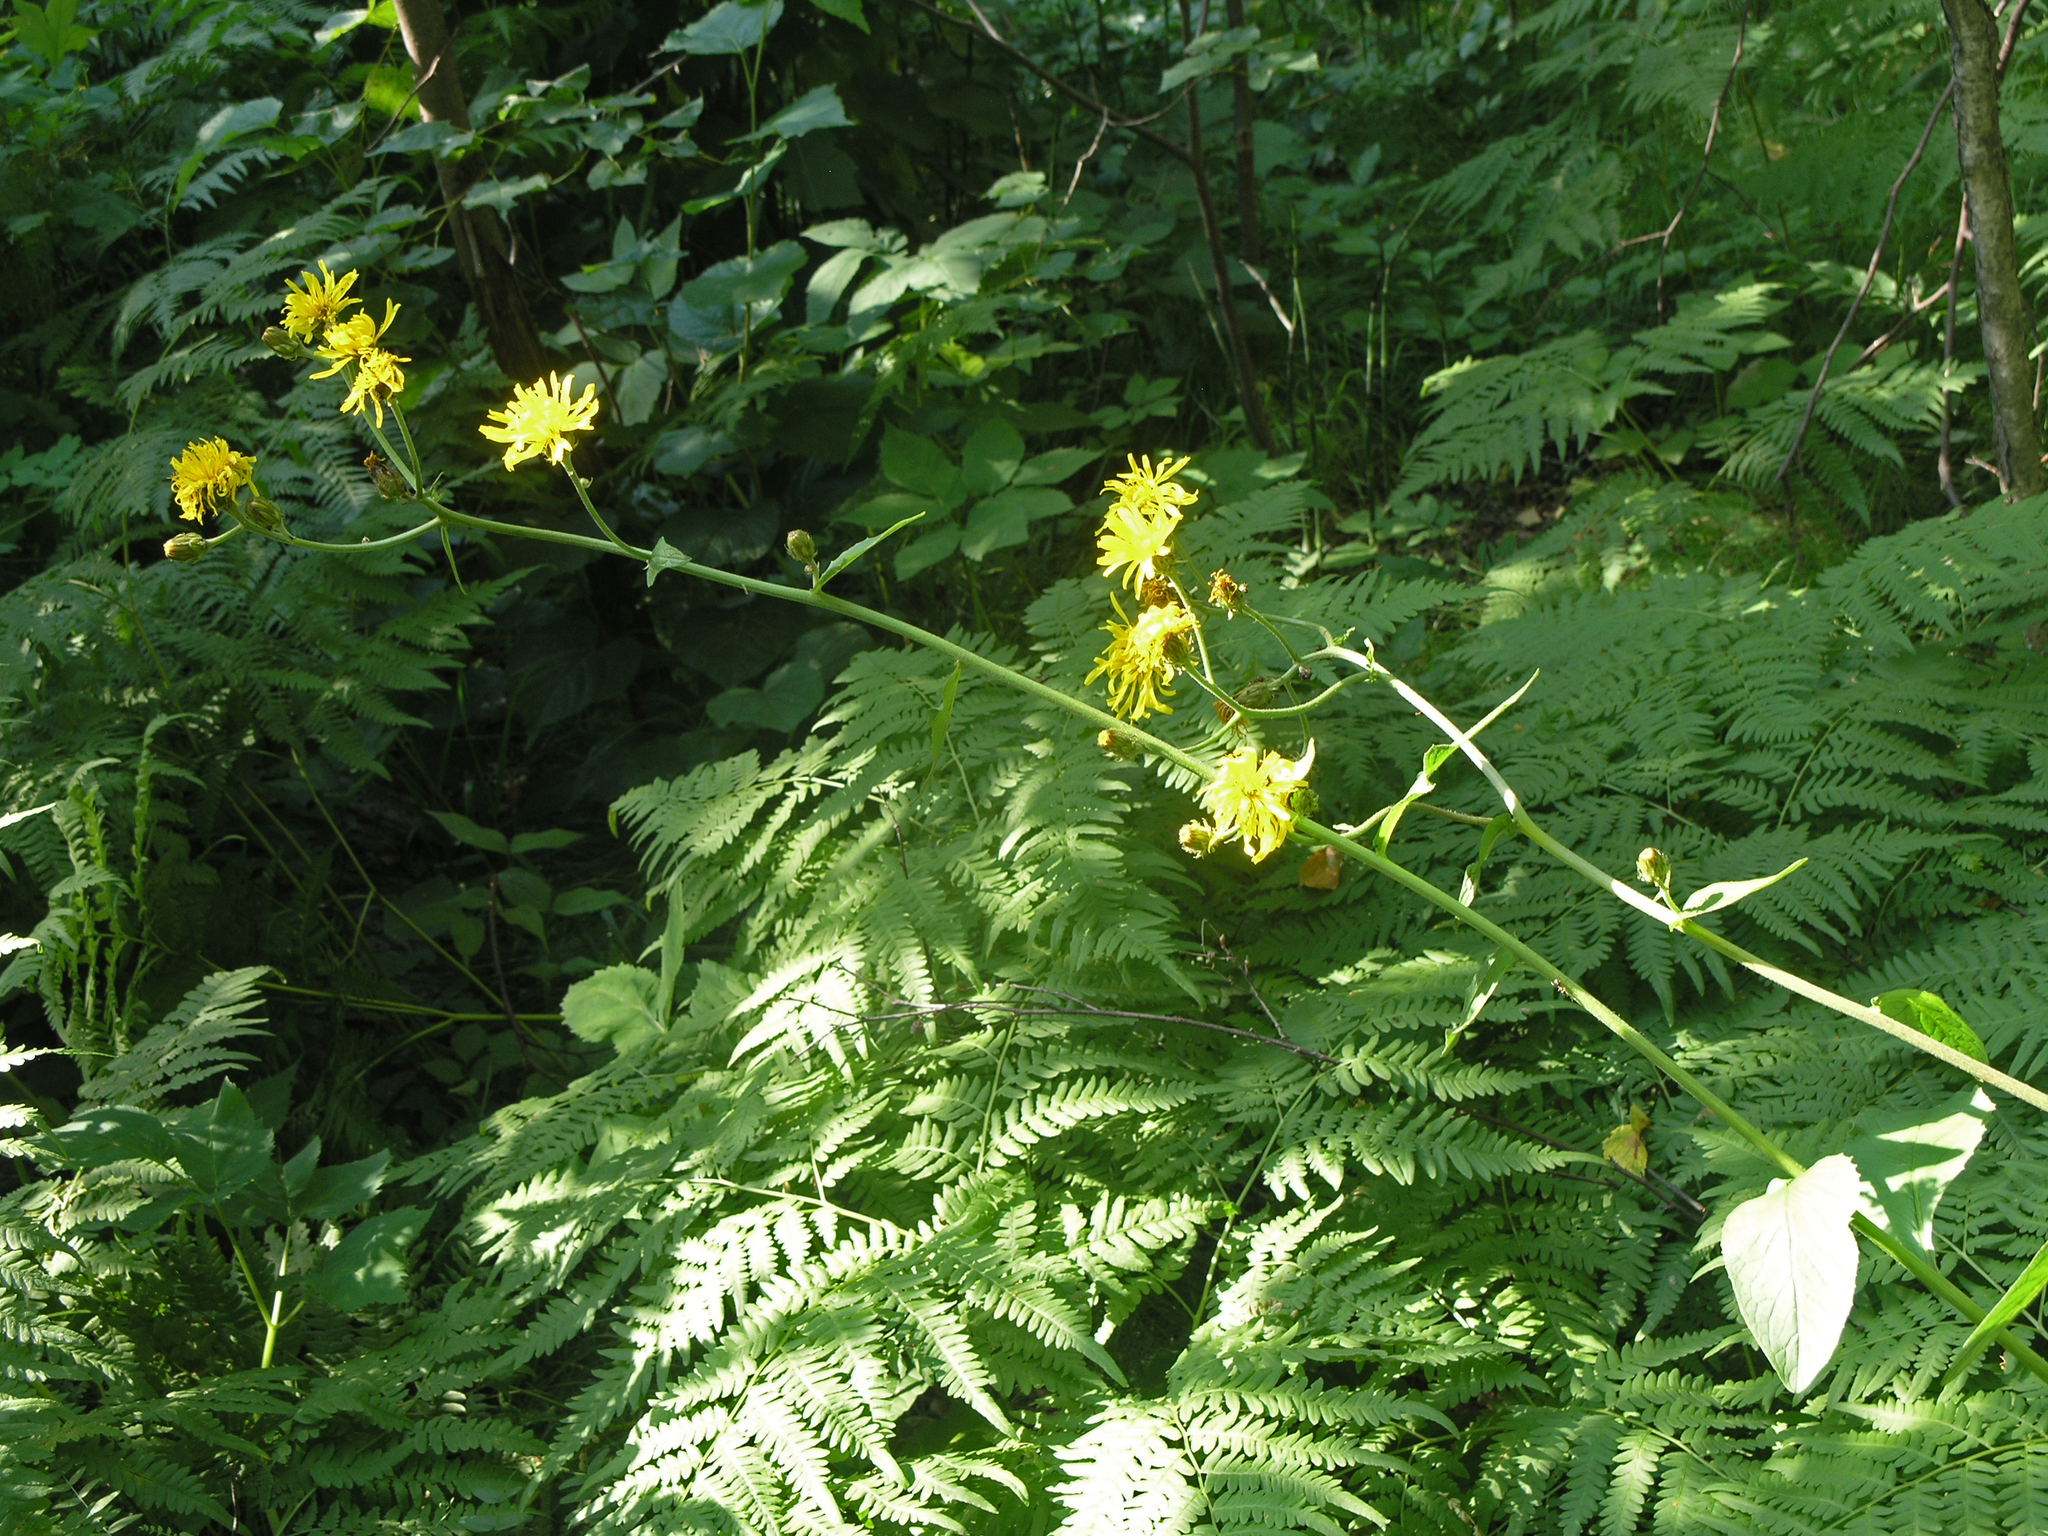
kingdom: Plantae
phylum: Tracheophyta
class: Magnoliopsida
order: Asterales
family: Asteraceae
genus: Crepis
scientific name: Crepis sibirica
